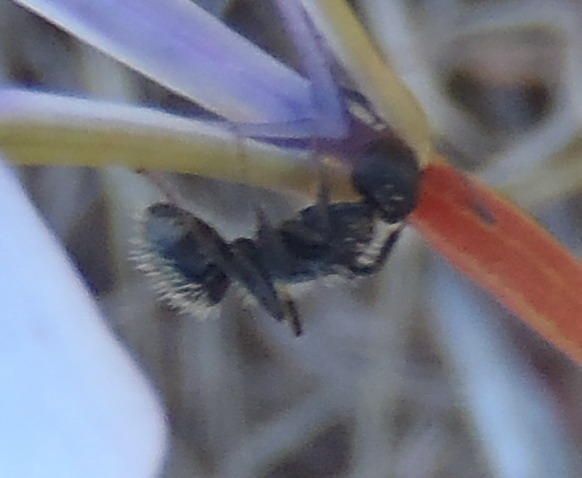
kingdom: Animalia
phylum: Arthropoda
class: Insecta
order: Hymenoptera
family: Formicidae
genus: Camponotus
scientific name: Camponotus niveosetosus
